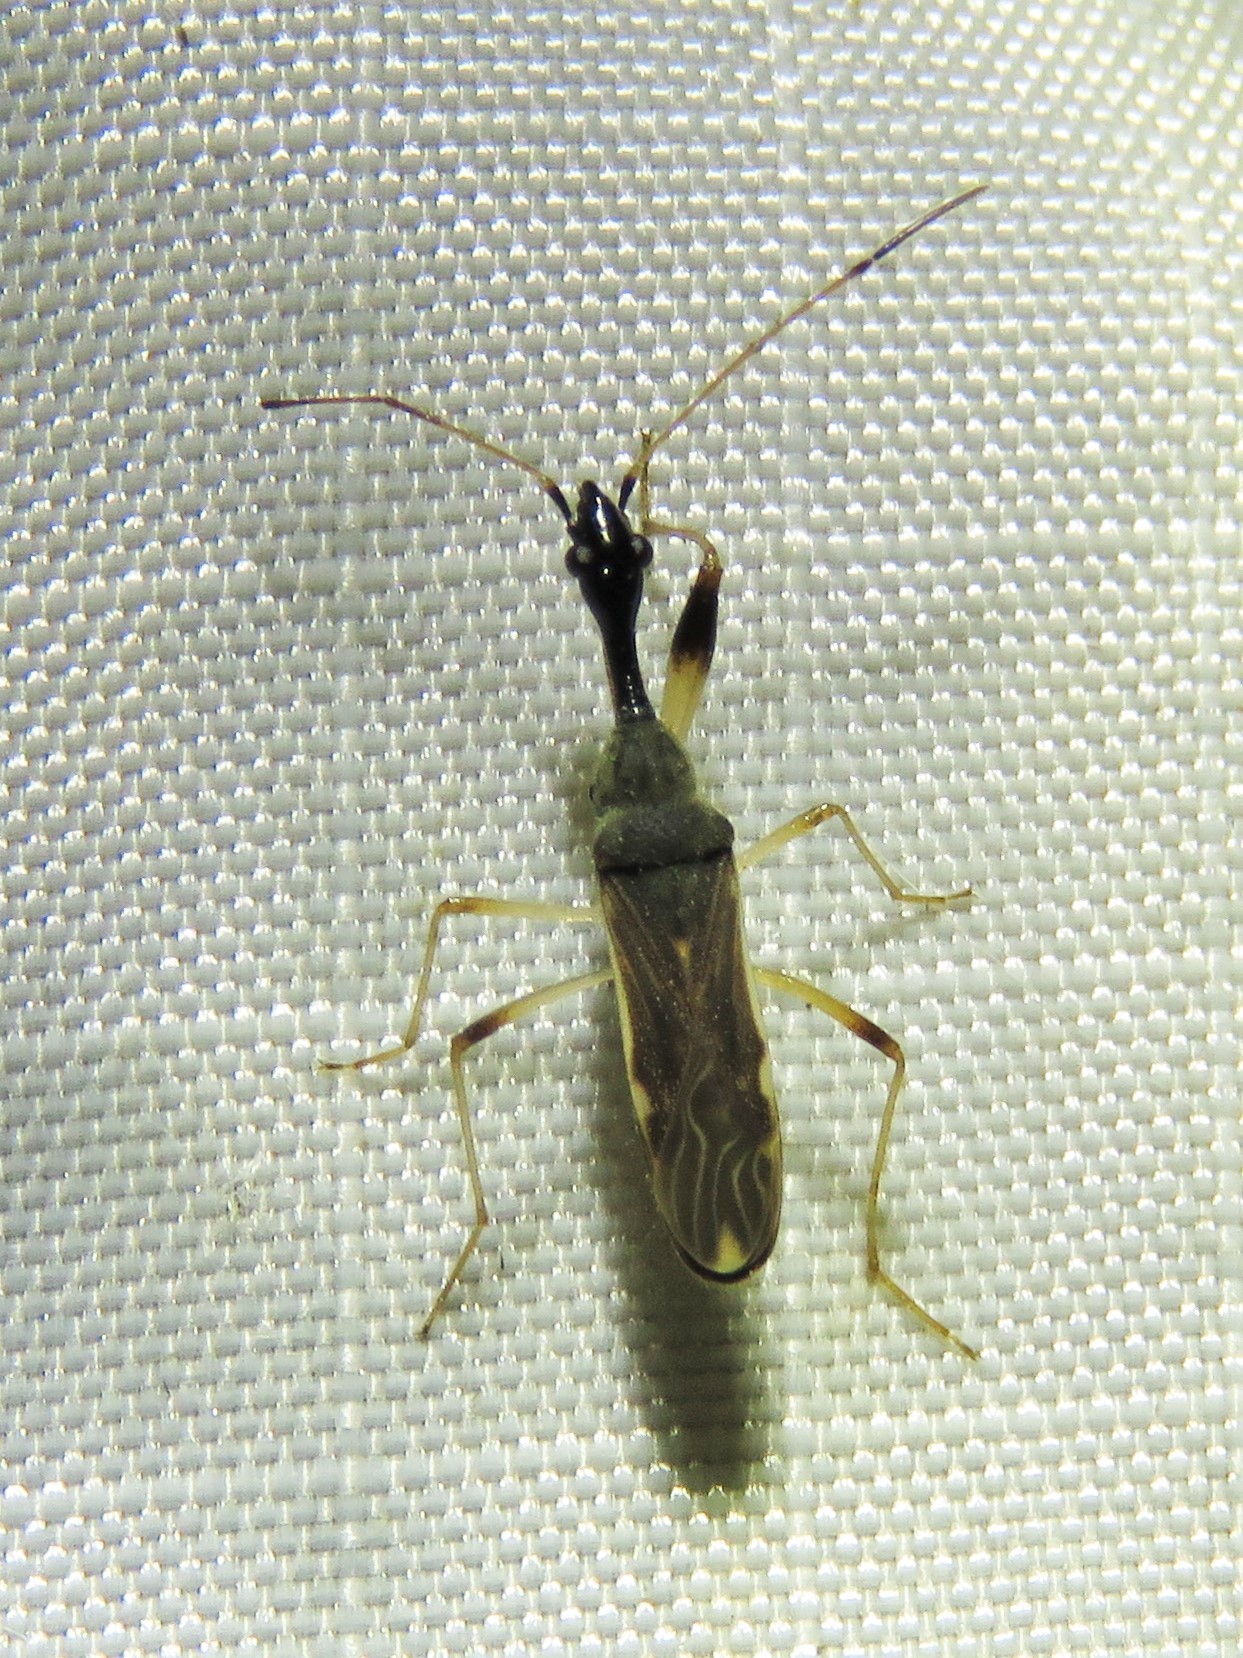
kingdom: Animalia
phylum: Arthropoda
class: Insecta
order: Hemiptera
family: Rhyparochromidae
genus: Myodocha
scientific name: Myodocha serripes
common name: Long-necked seed bug
